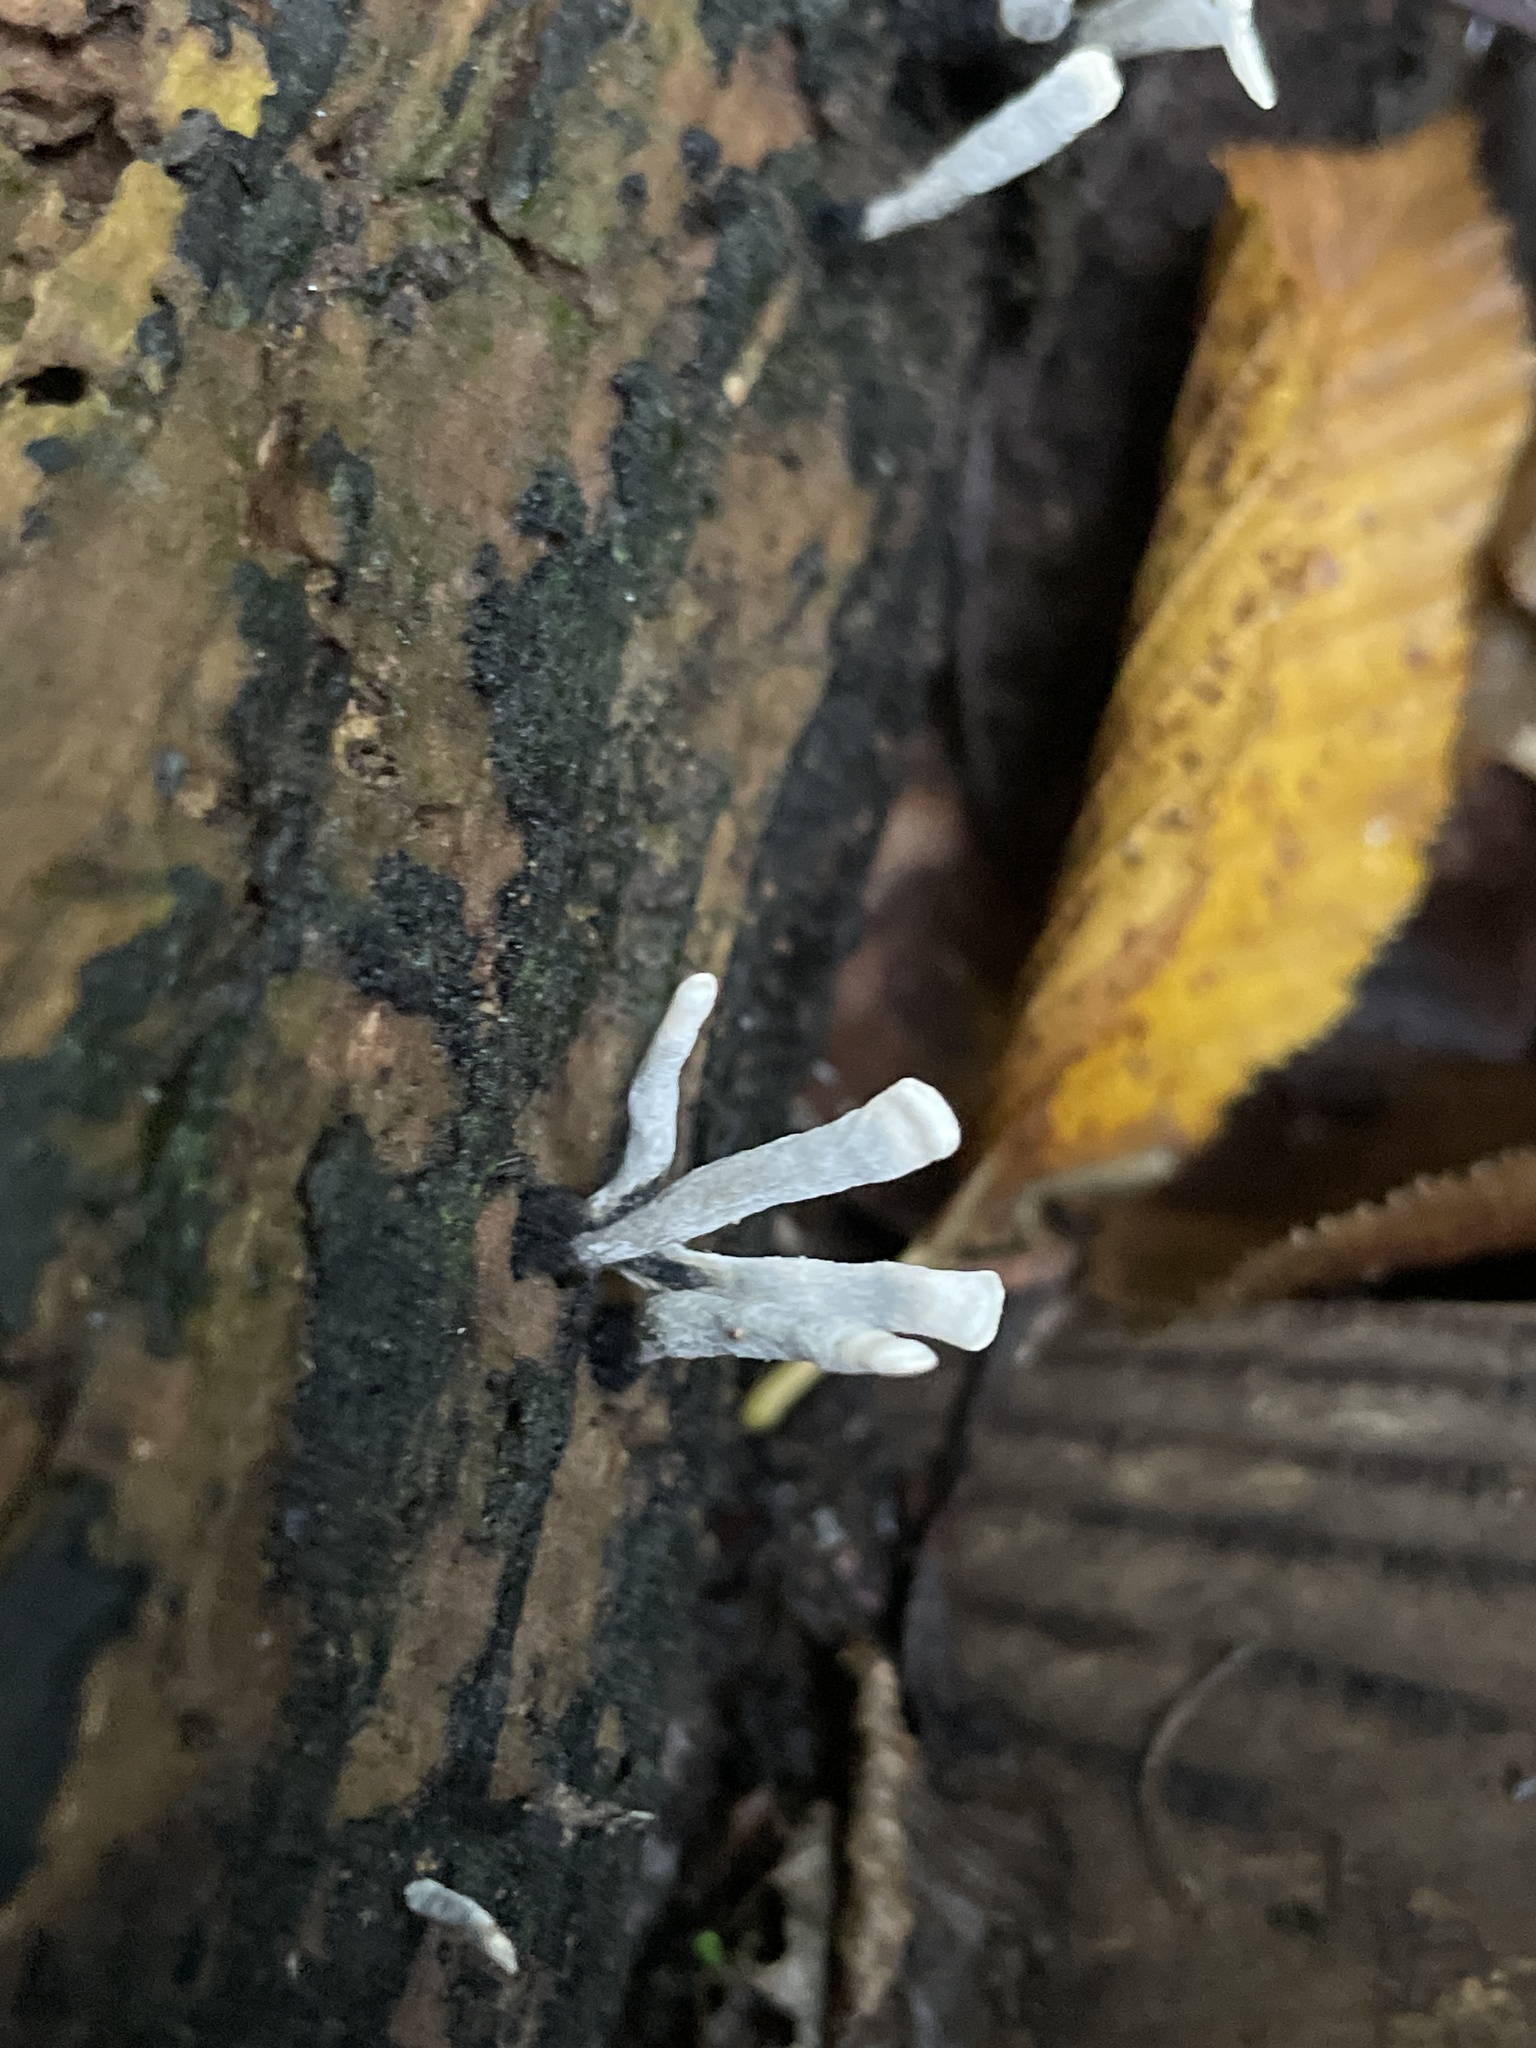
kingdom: Fungi
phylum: Ascomycota
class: Sordariomycetes
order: Xylariales
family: Xylariaceae
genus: Xylaria
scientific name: Xylaria hypoxylon
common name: Candle-snuff fungus
